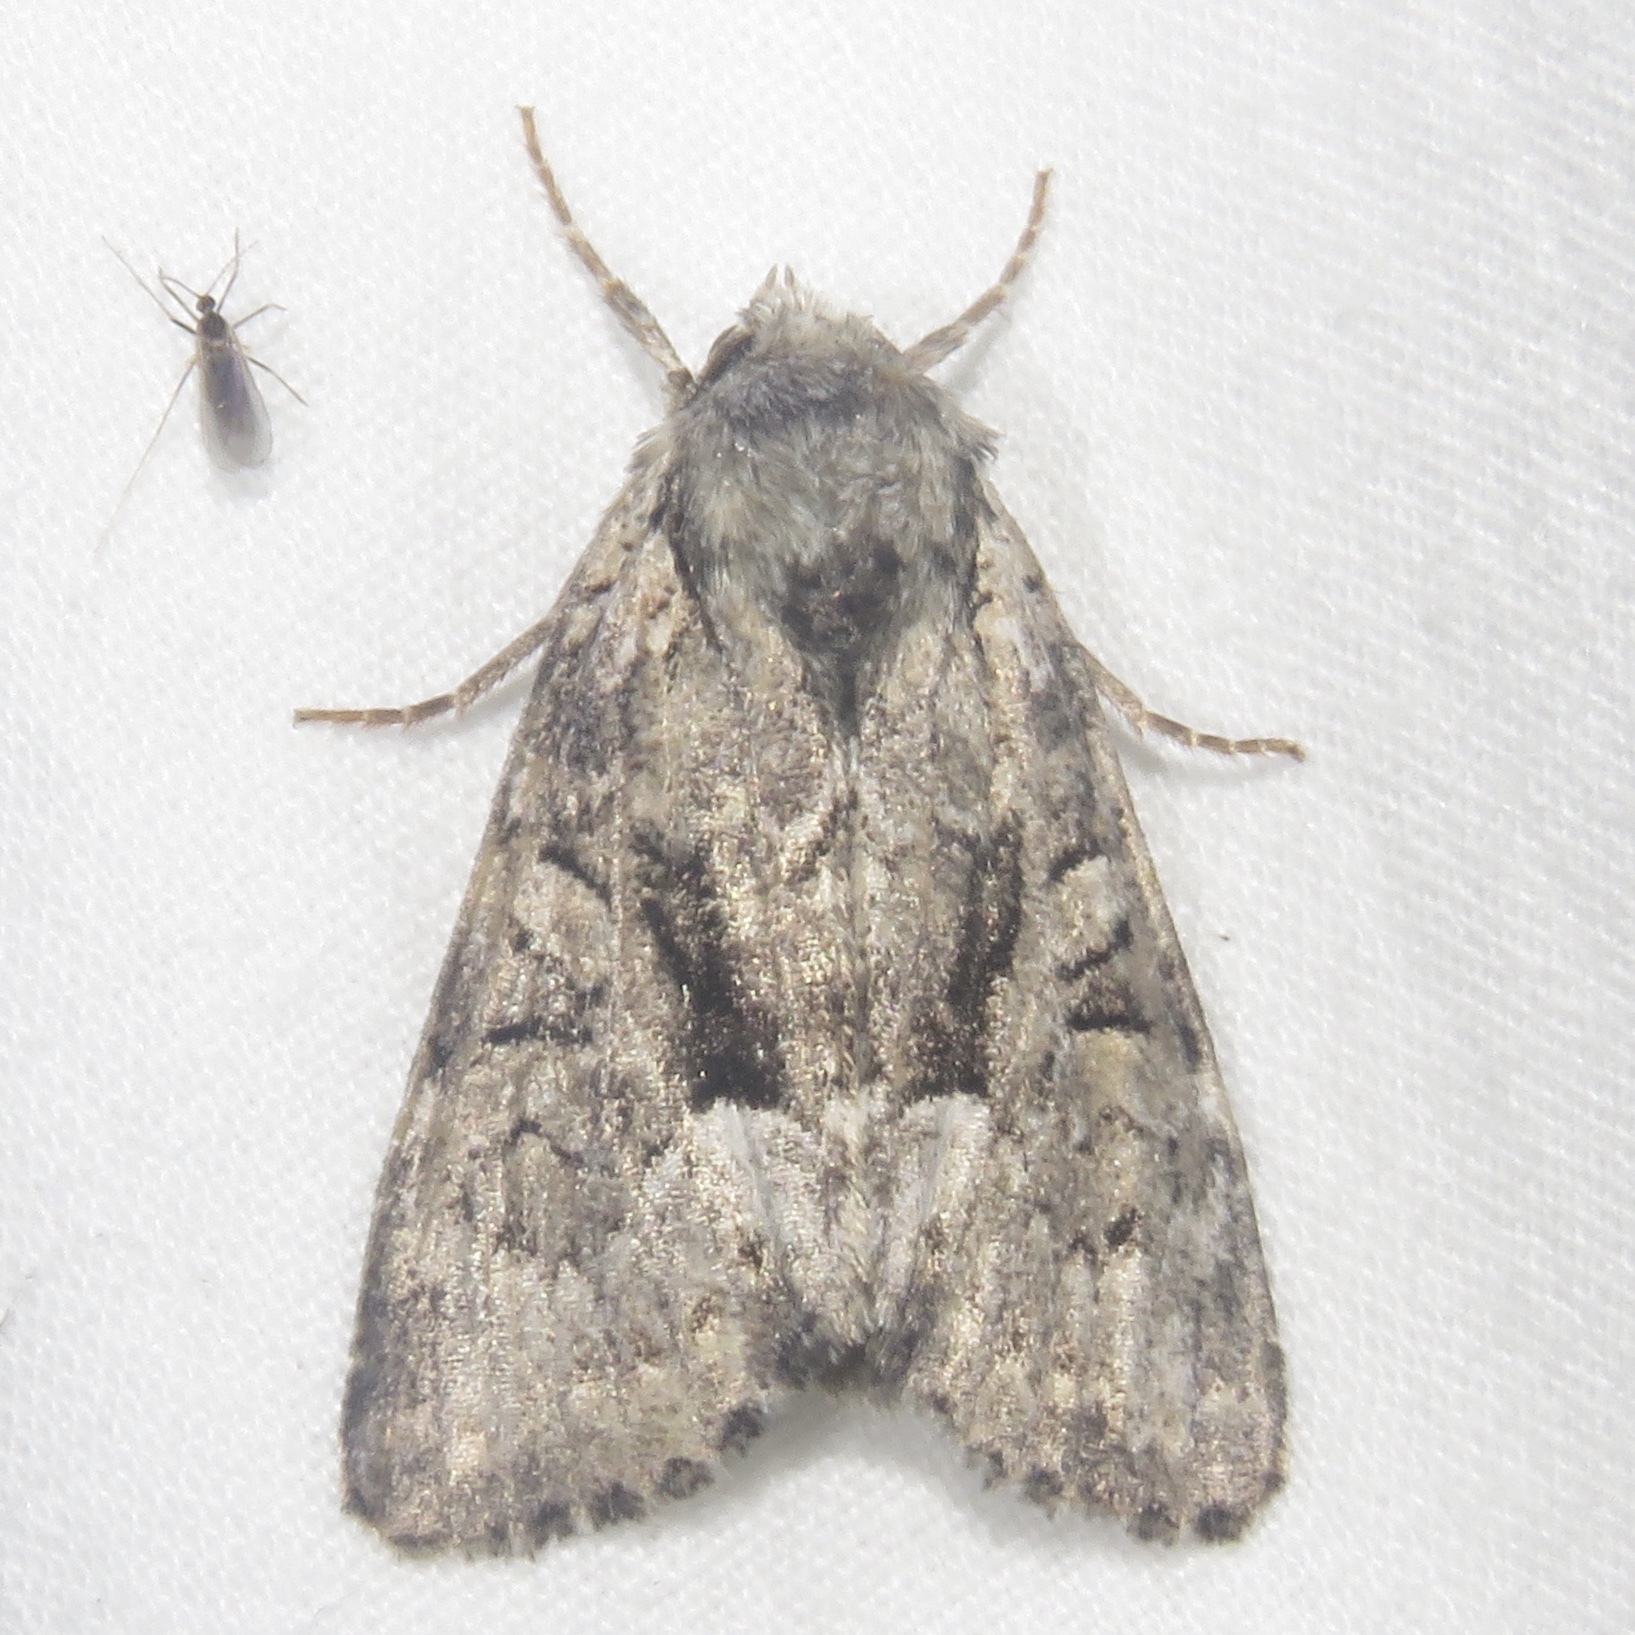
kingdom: Animalia
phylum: Arthropoda
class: Insecta
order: Lepidoptera
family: Noctuidae
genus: Eremobina
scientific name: Eremobina leucoscelis
